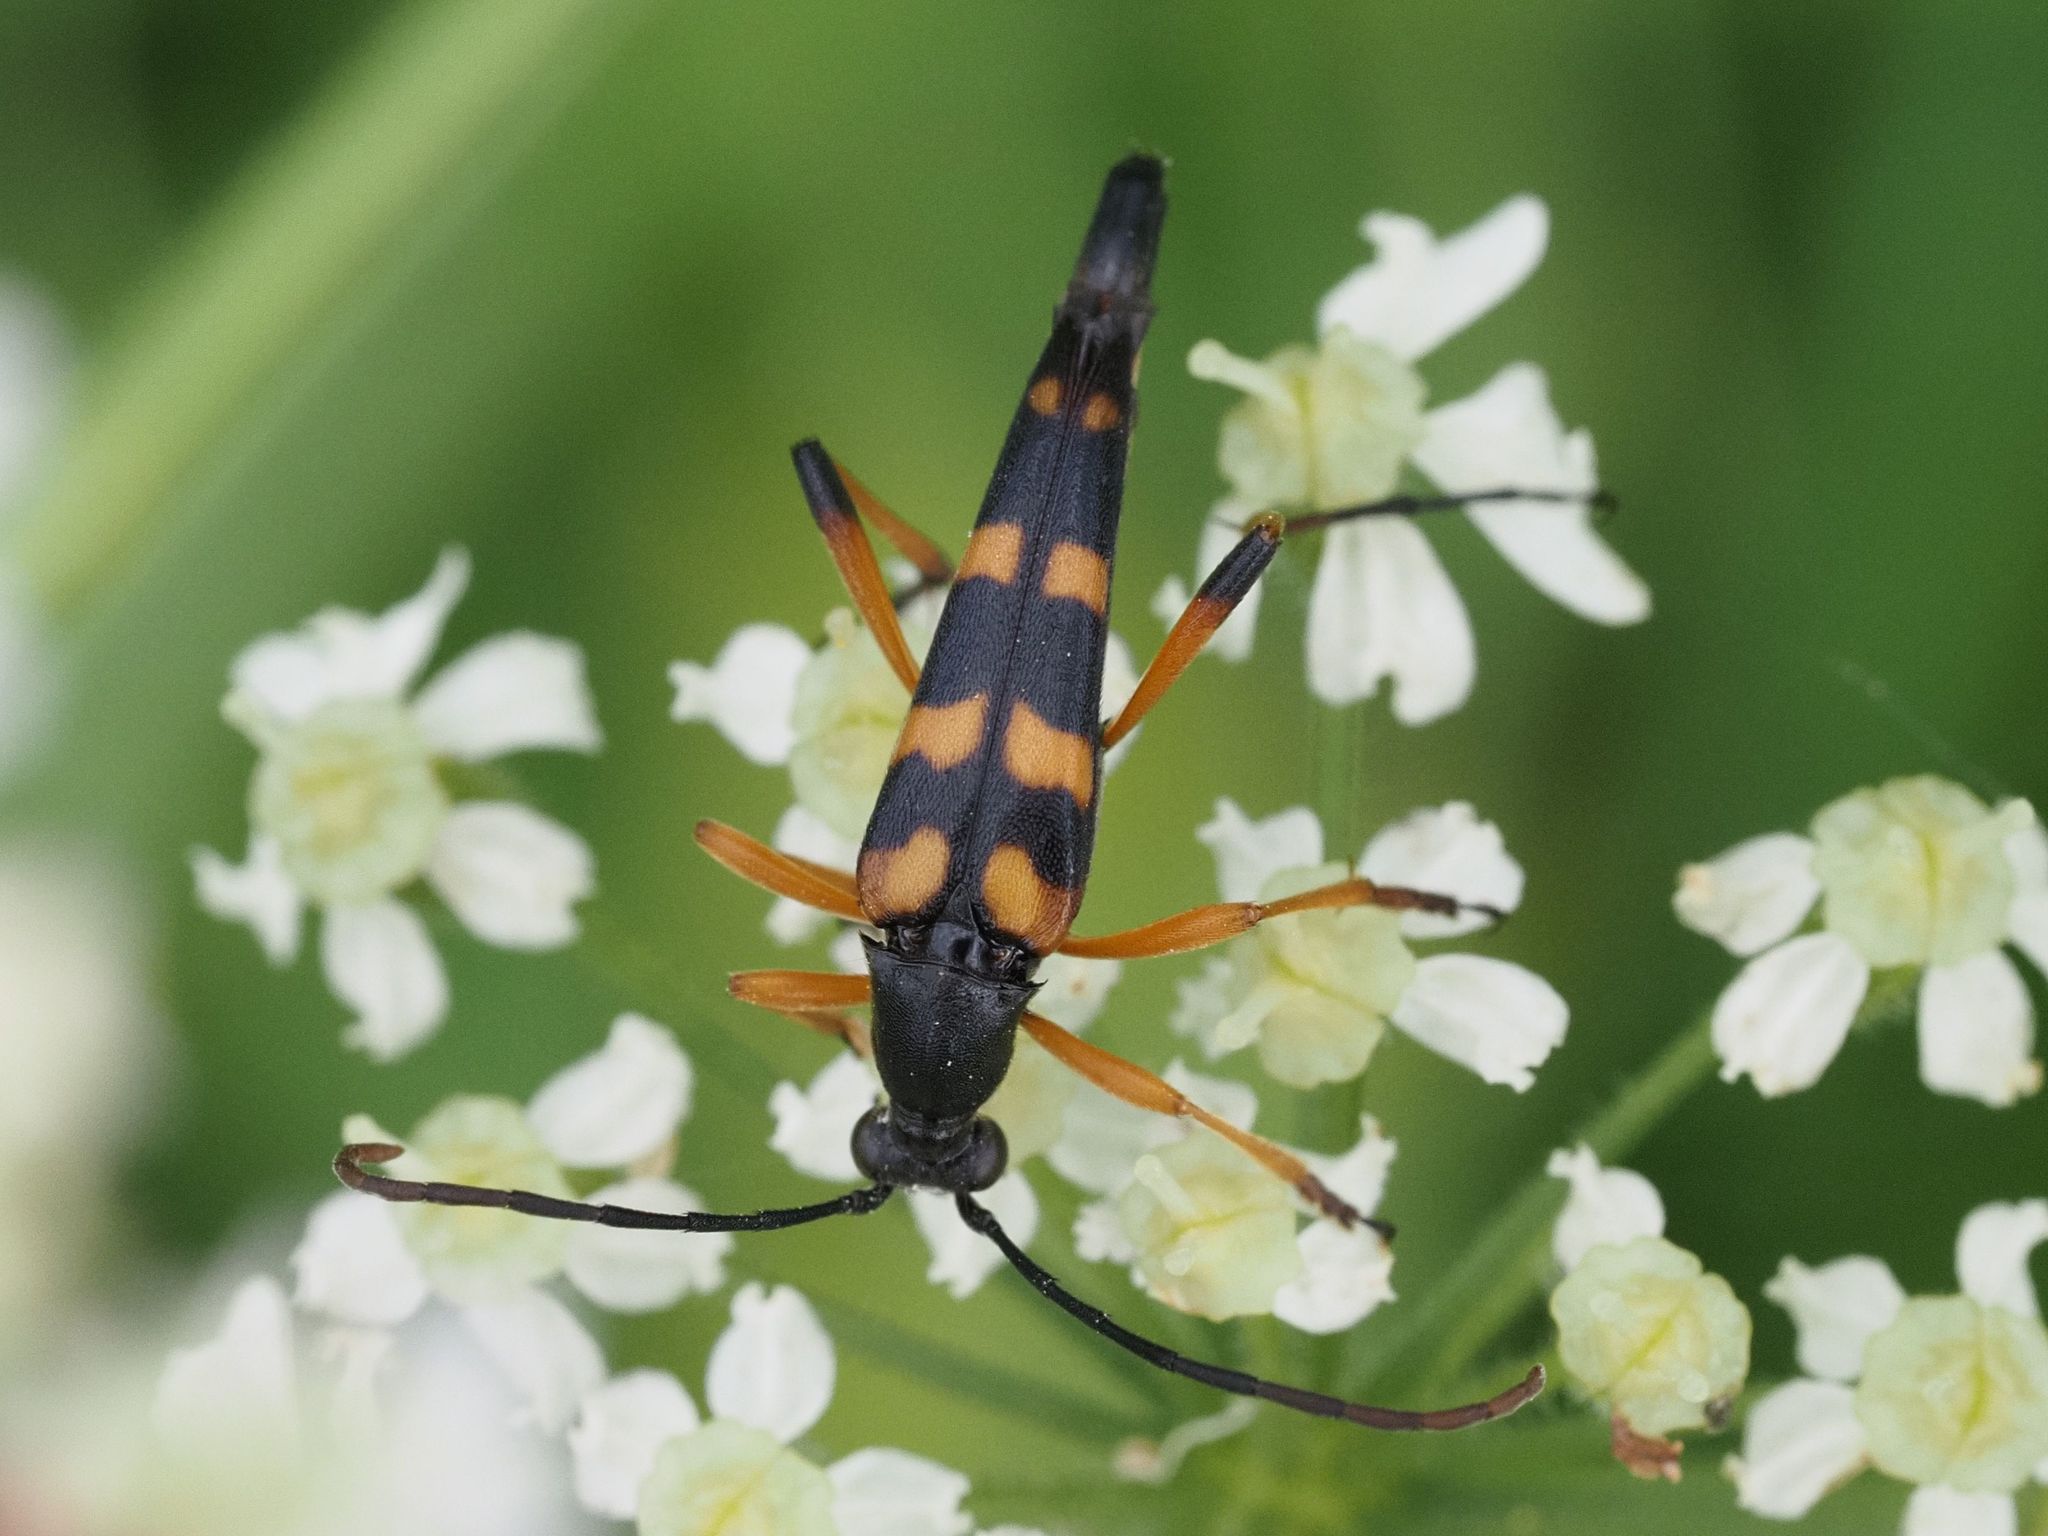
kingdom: Animalia
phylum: Arthropoda
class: Insecta
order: Coleoptera
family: Cerambycidae
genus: Strangalia
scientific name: Strangalia attenuata
